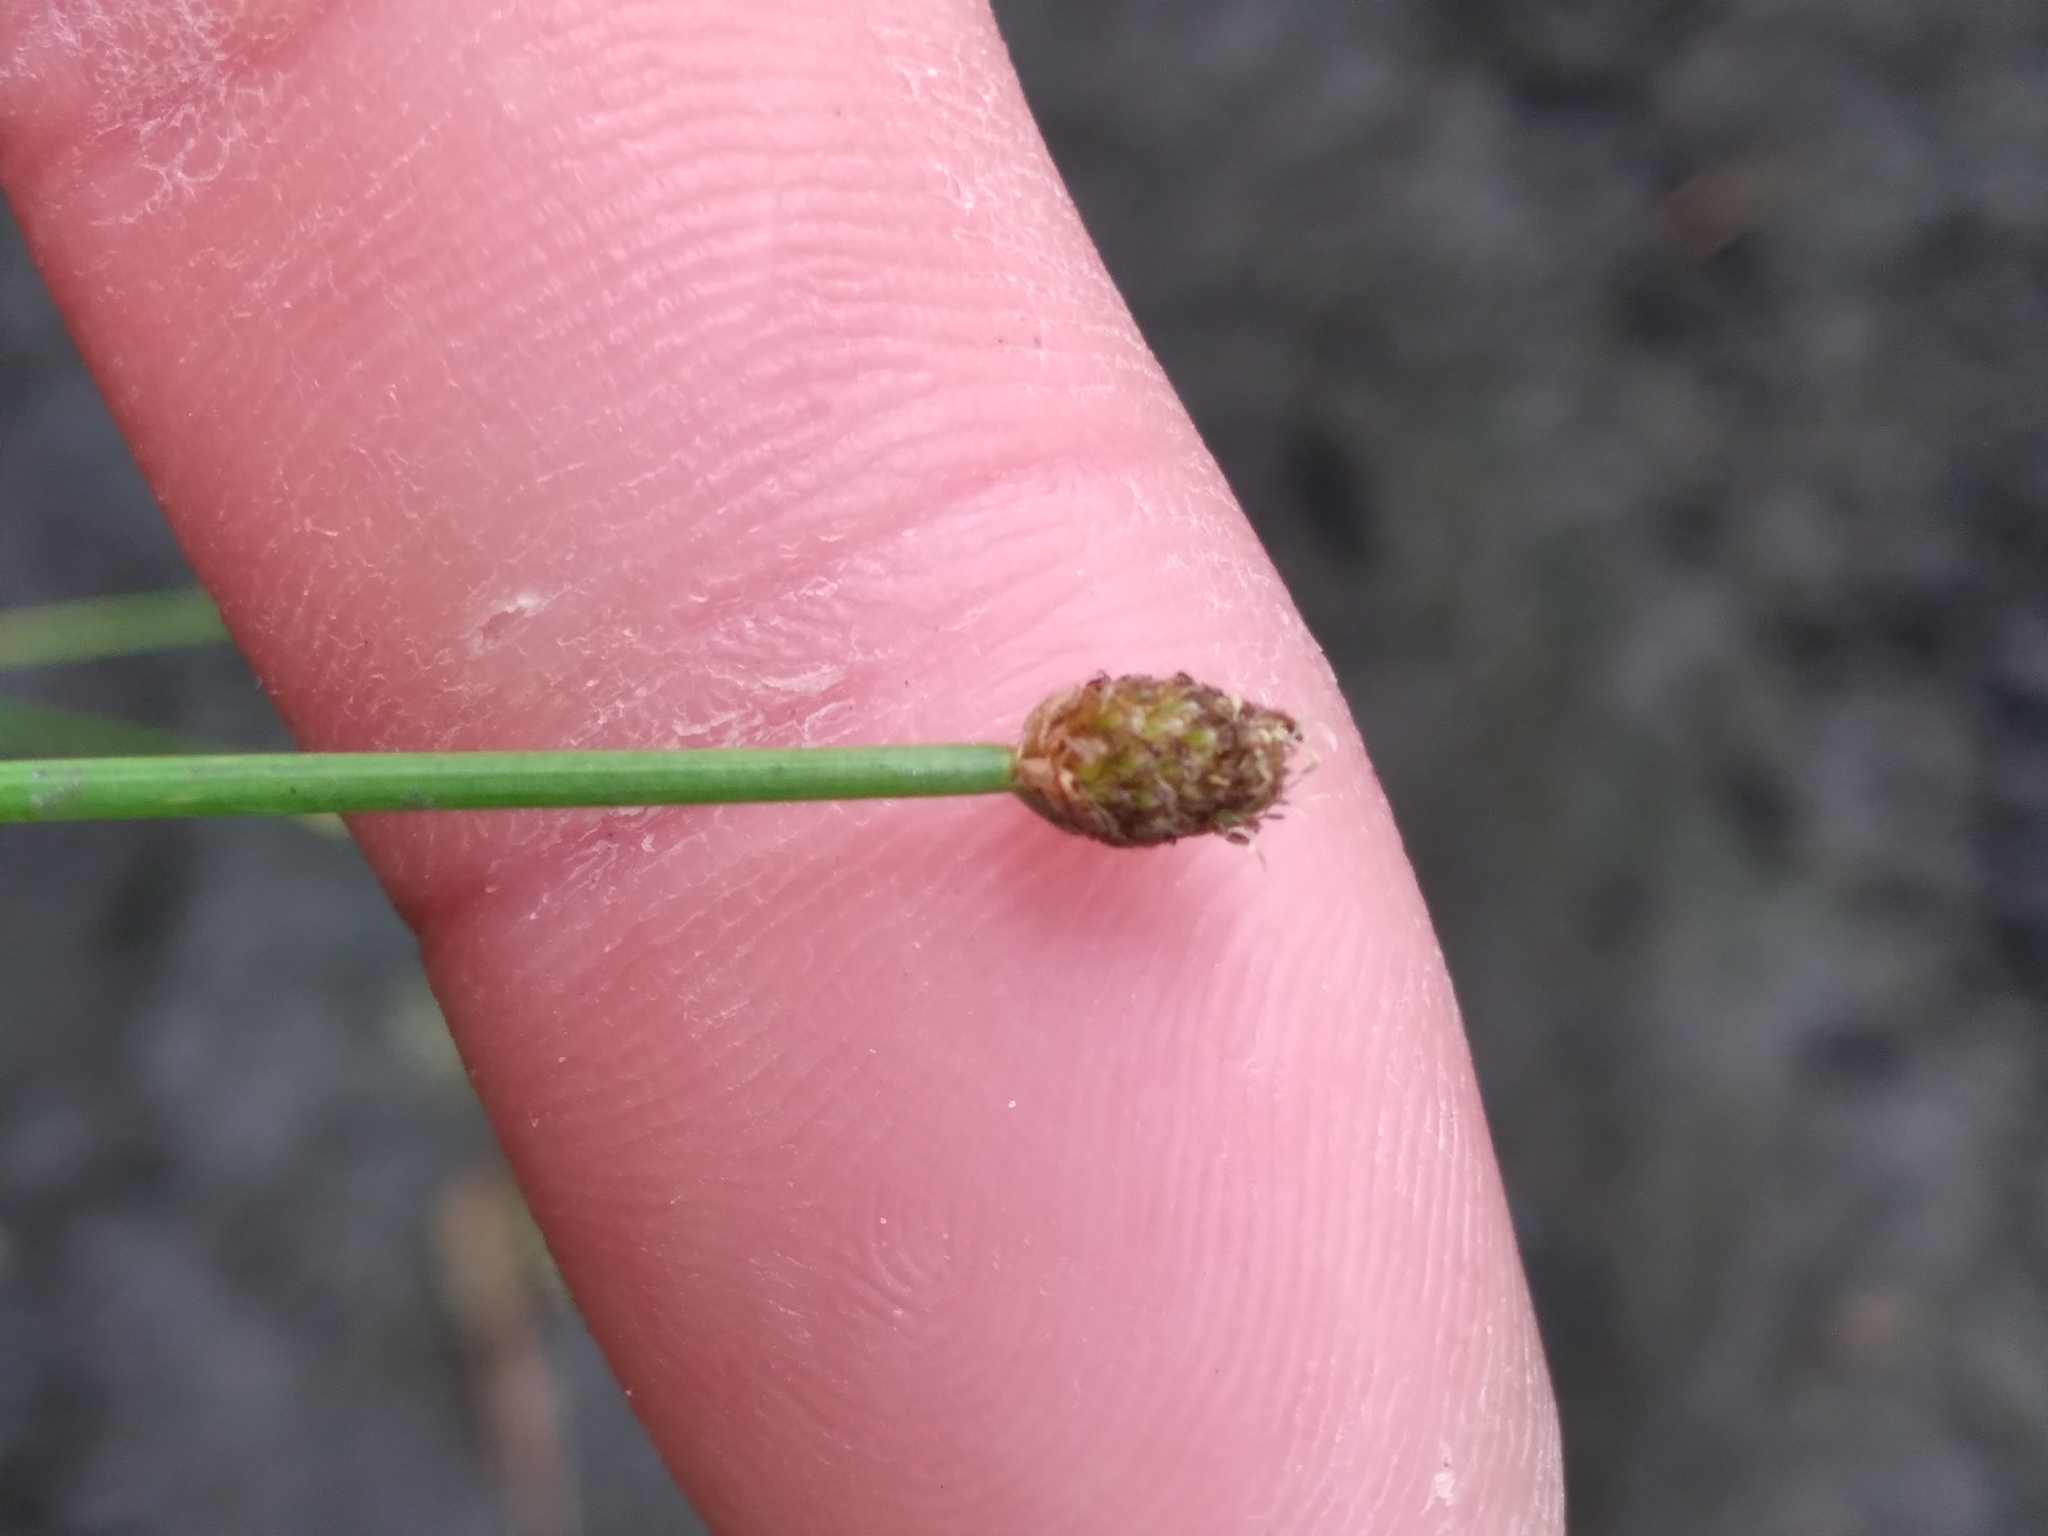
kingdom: Plantae
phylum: Tracheophyta
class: Liliopsida
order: Poales
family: Cyperaceae
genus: Eleocharis
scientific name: Eleocharis obtusa
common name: Blunt spikerush
